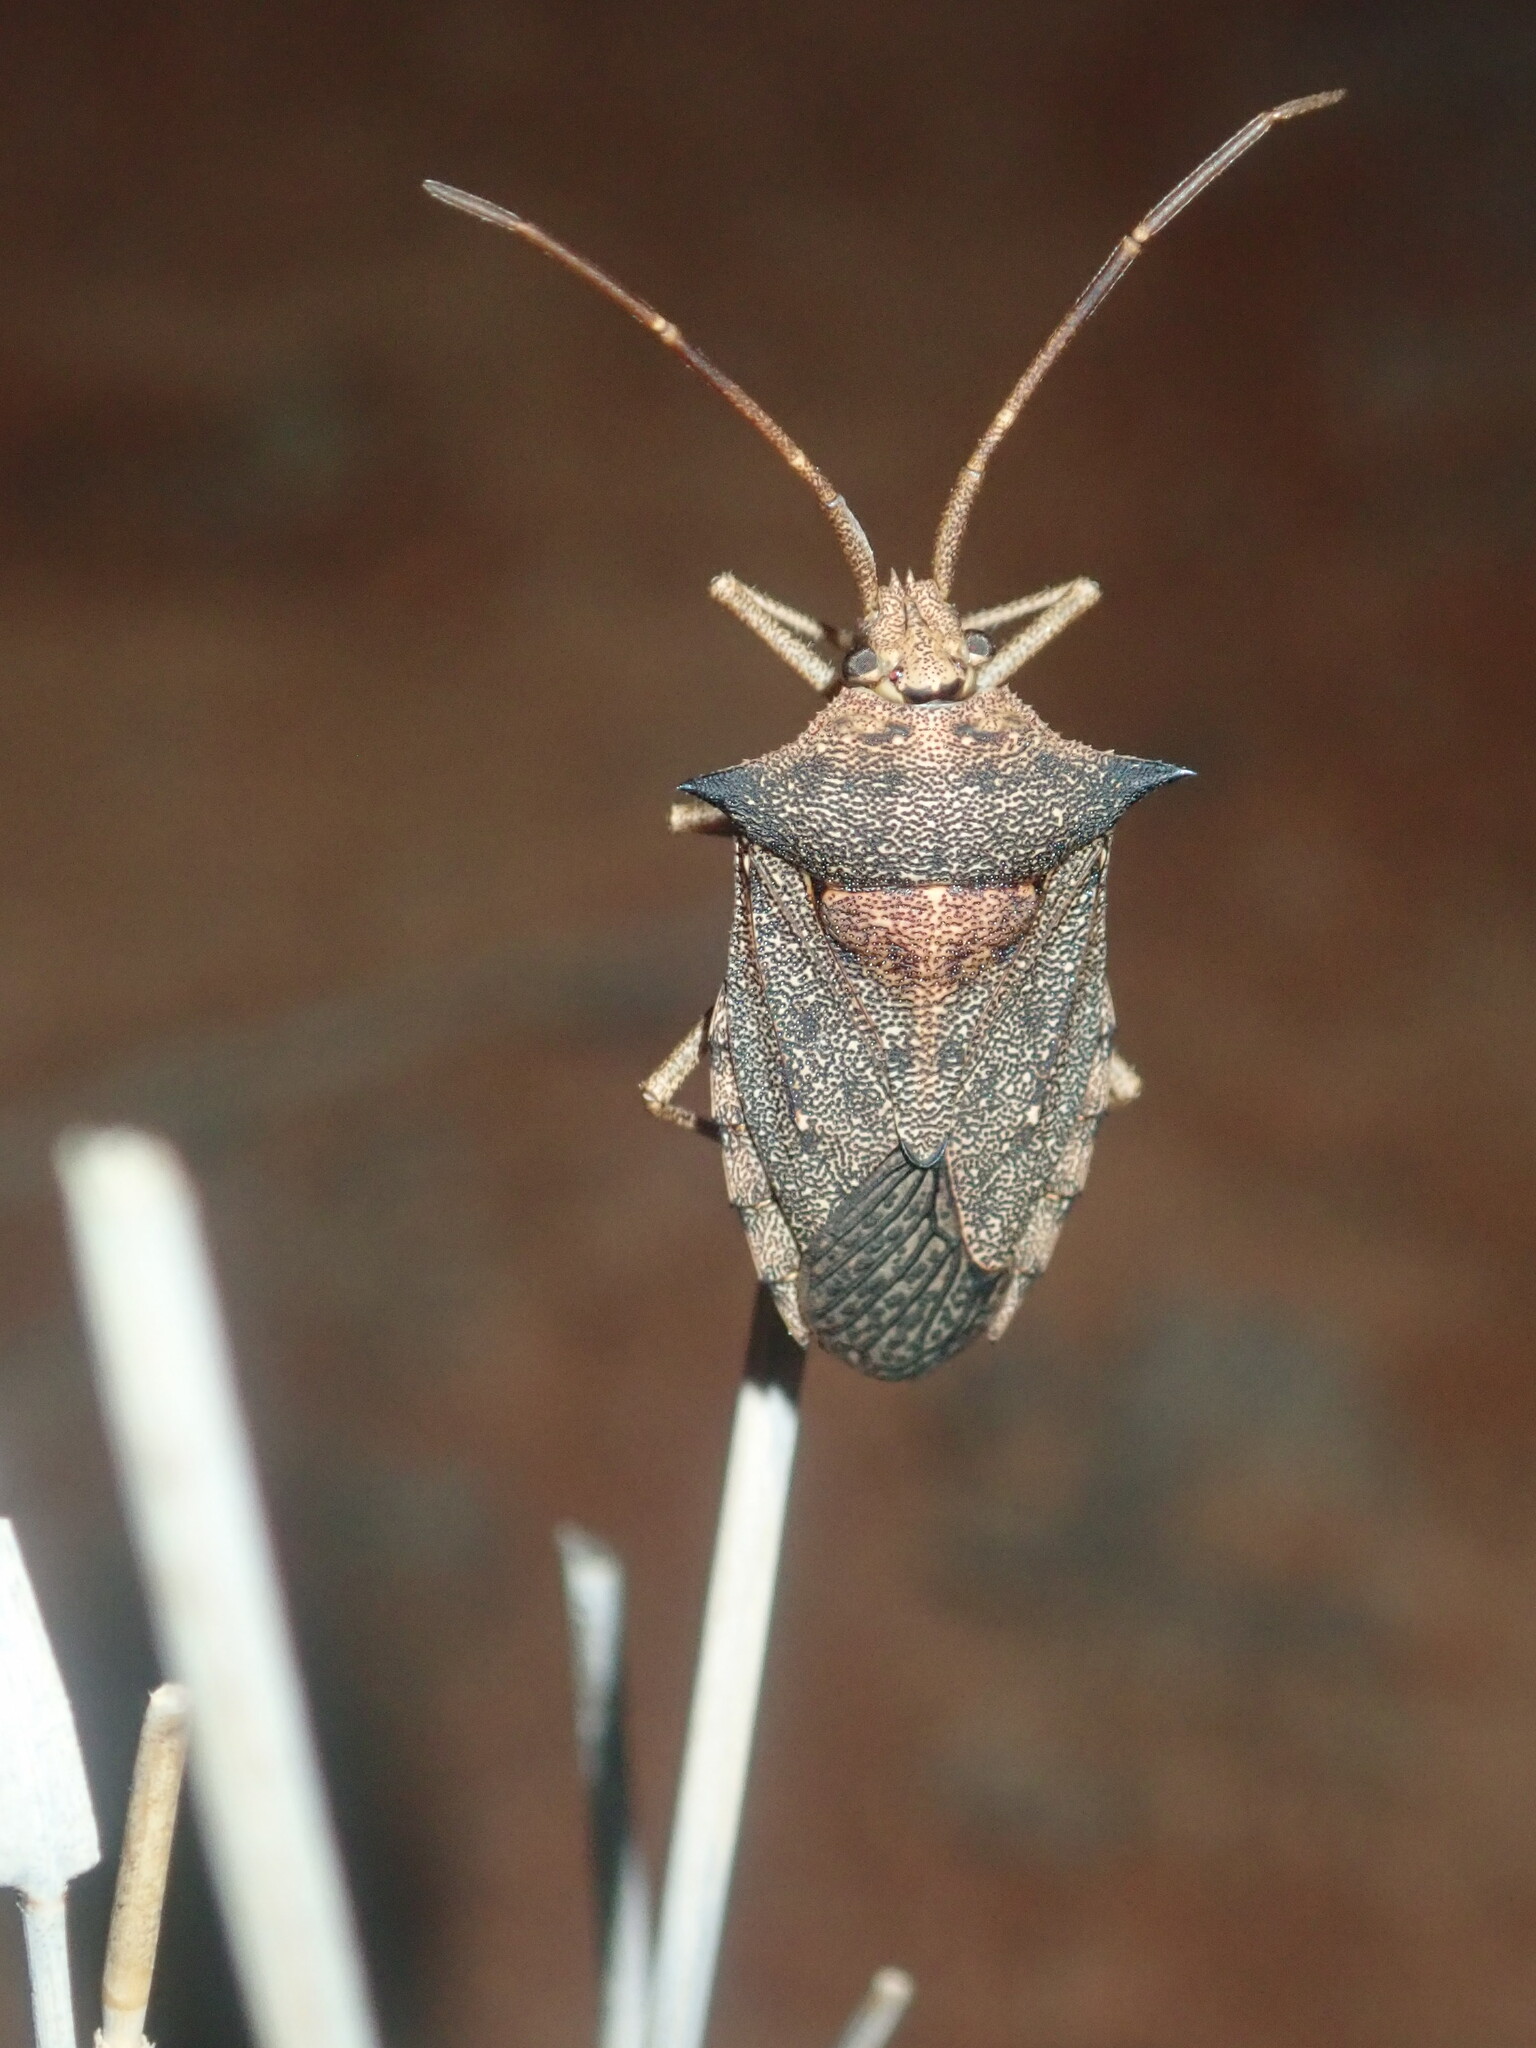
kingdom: Animalia
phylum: Arthropoda
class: Insecta
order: Hemiptera
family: Pentatomidae
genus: Neagenor
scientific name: Neagenor
